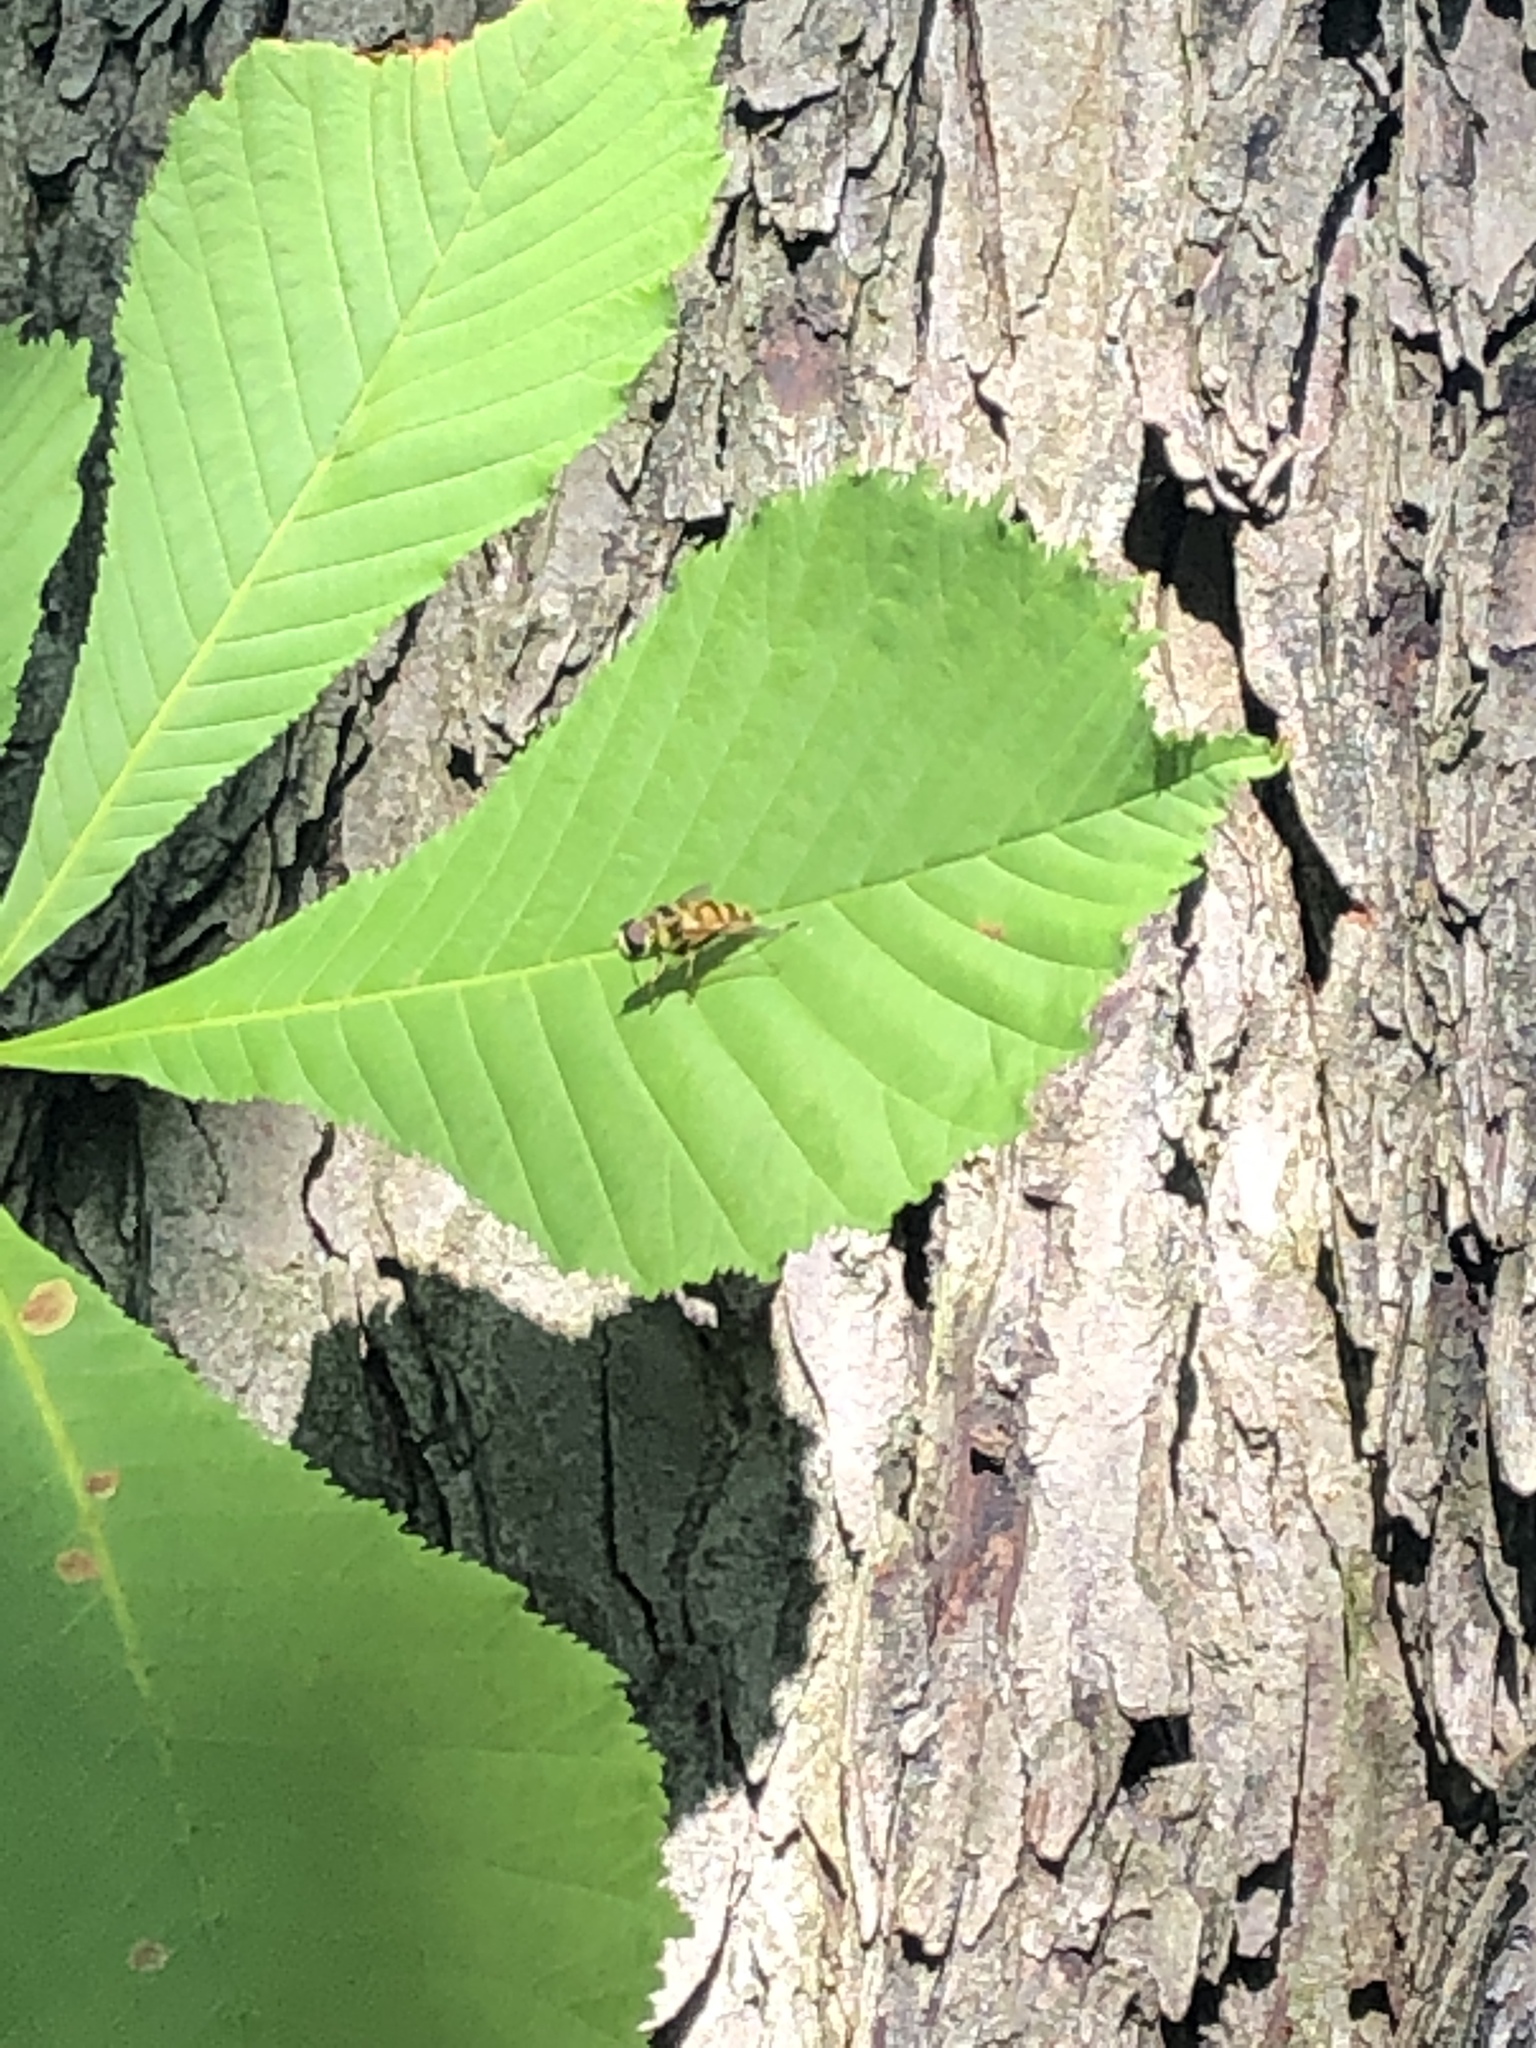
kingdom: Animalia
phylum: Arthropoda
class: Insecta
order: Diptera
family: Syrphidae
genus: Myathropa
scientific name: Myathropa florea
